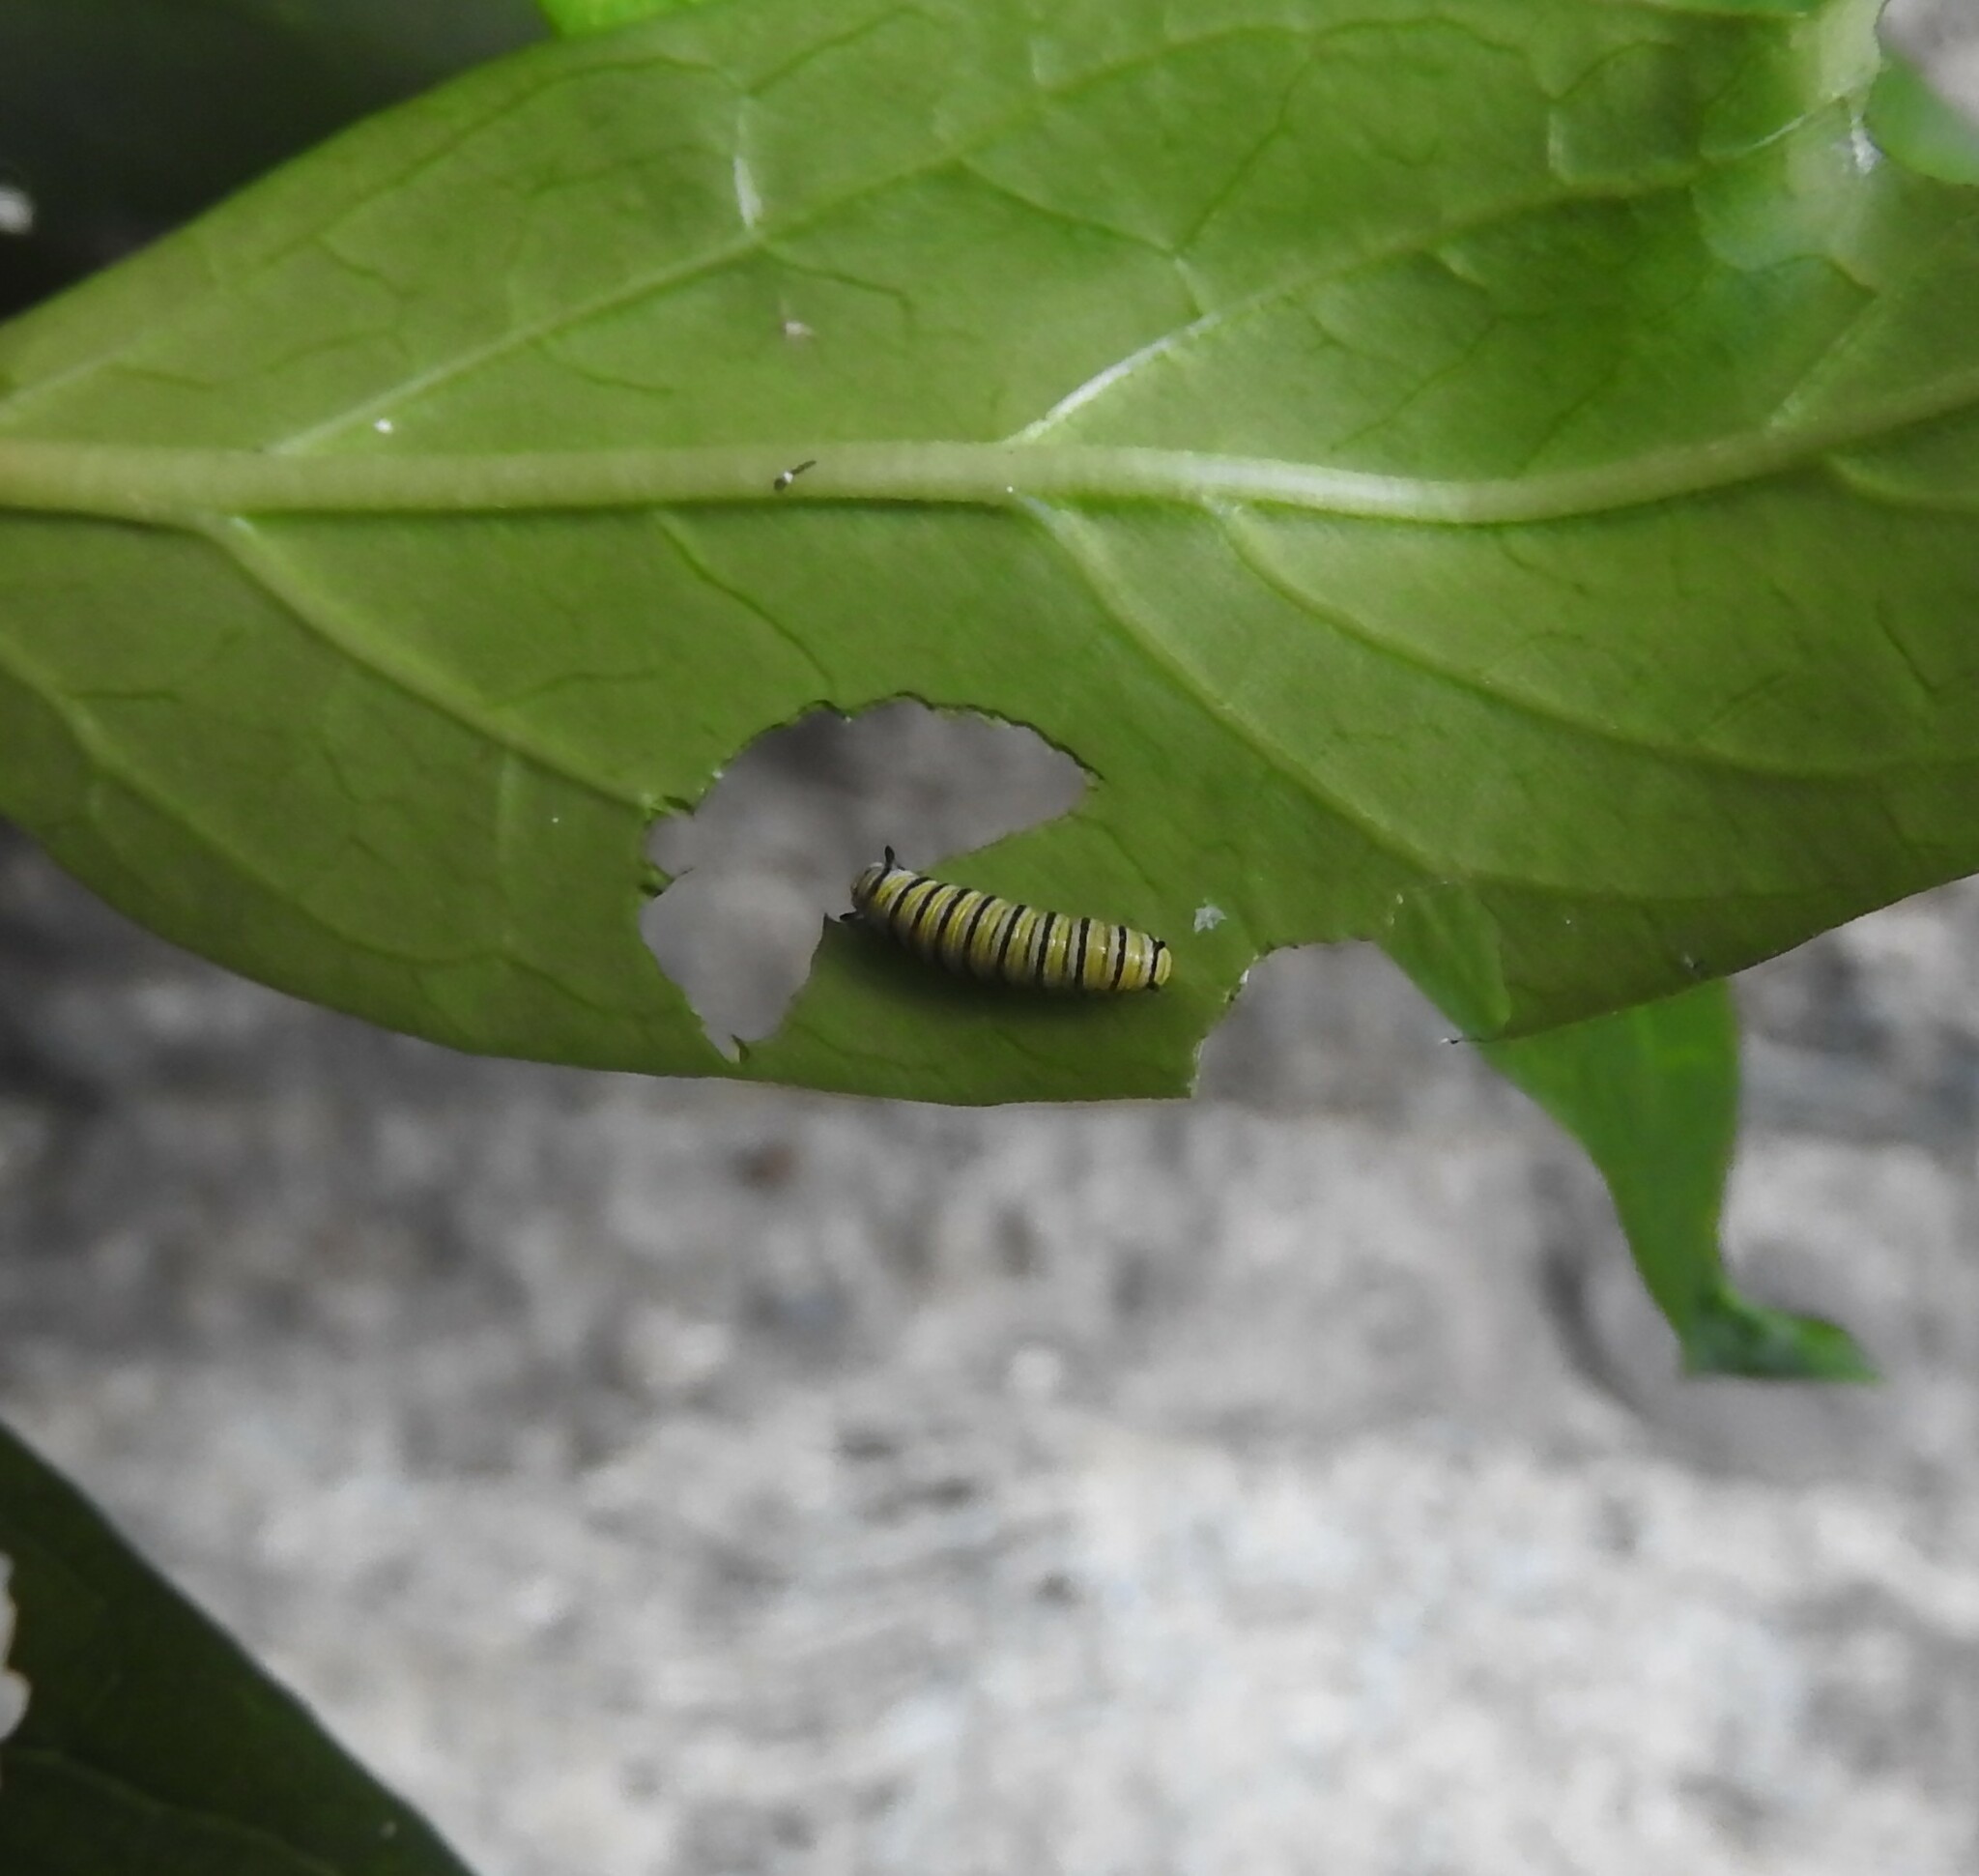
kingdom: Animalia
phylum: Arthropoda
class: Insecta
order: Lepidoptera
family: Nymphalidae
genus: Danaus
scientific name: Danaus plexippus
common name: Monarch
